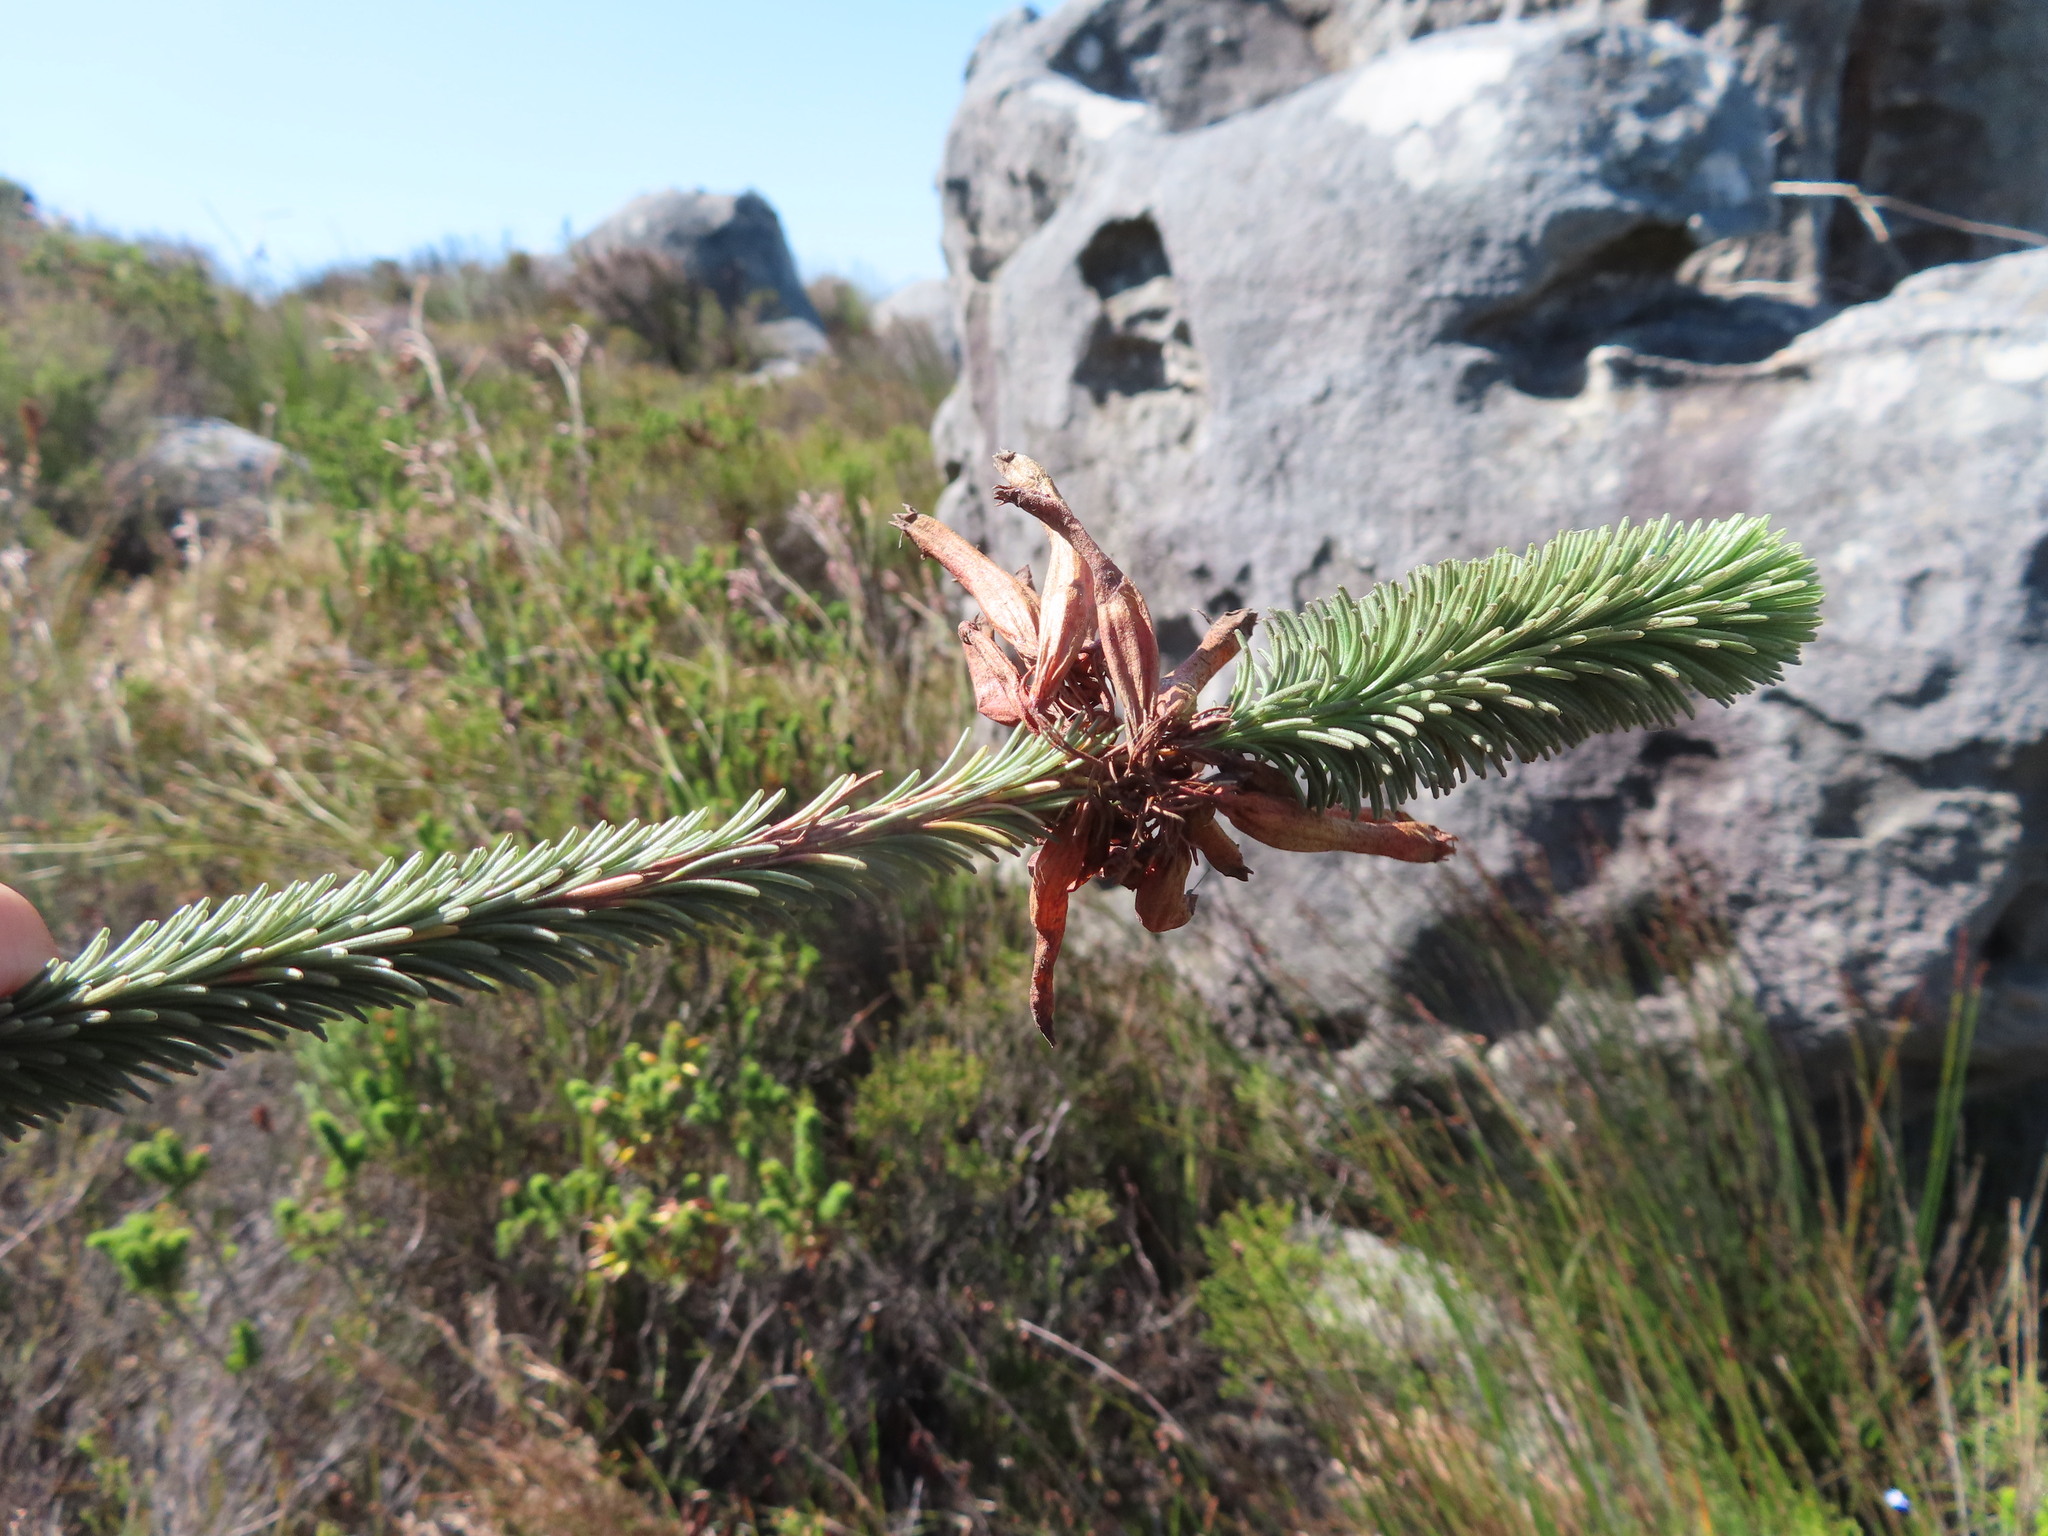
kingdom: Plantae
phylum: Tracheophyta
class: Magnoliopsida
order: Ericales
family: Ericaceae
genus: Erica
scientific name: Erica fascicularis
